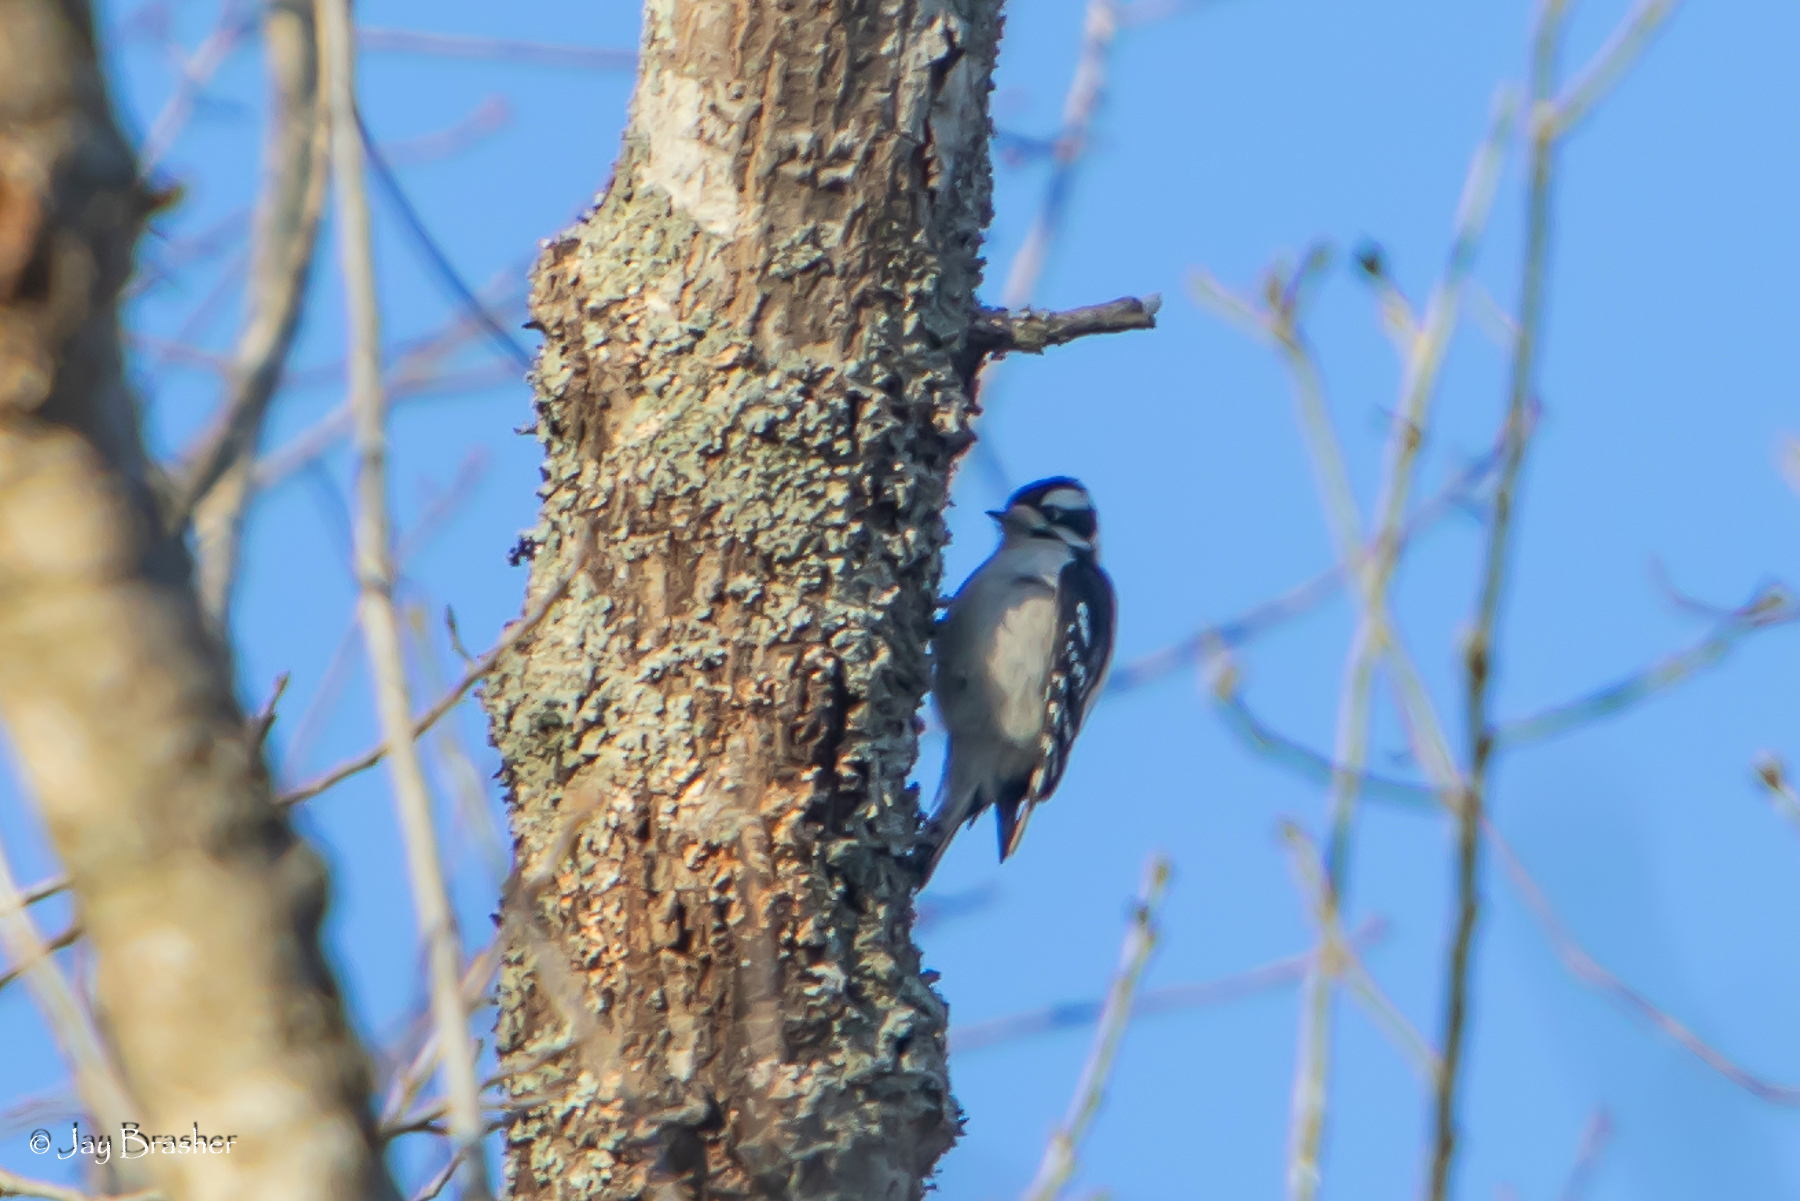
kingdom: Animalia
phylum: Chordata
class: Aves
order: Piciformes
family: Picidae
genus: Dryobates
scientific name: Dryobates pubescens
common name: Downy woodpecker
